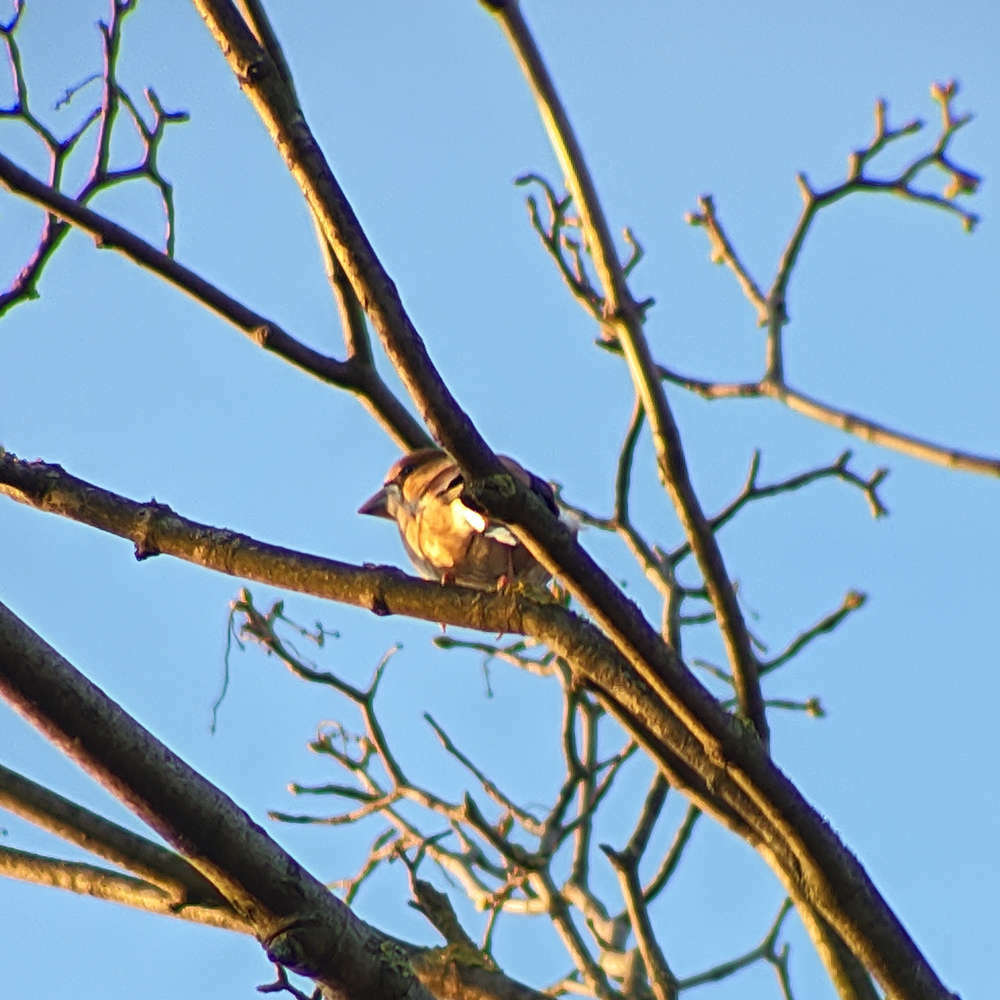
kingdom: Animalia
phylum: Chordata
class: Aves
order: Passeriformes
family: Fringillidae
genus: Coccothraustes
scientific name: Coccothraustes coccothraustes
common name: Hawfinch
